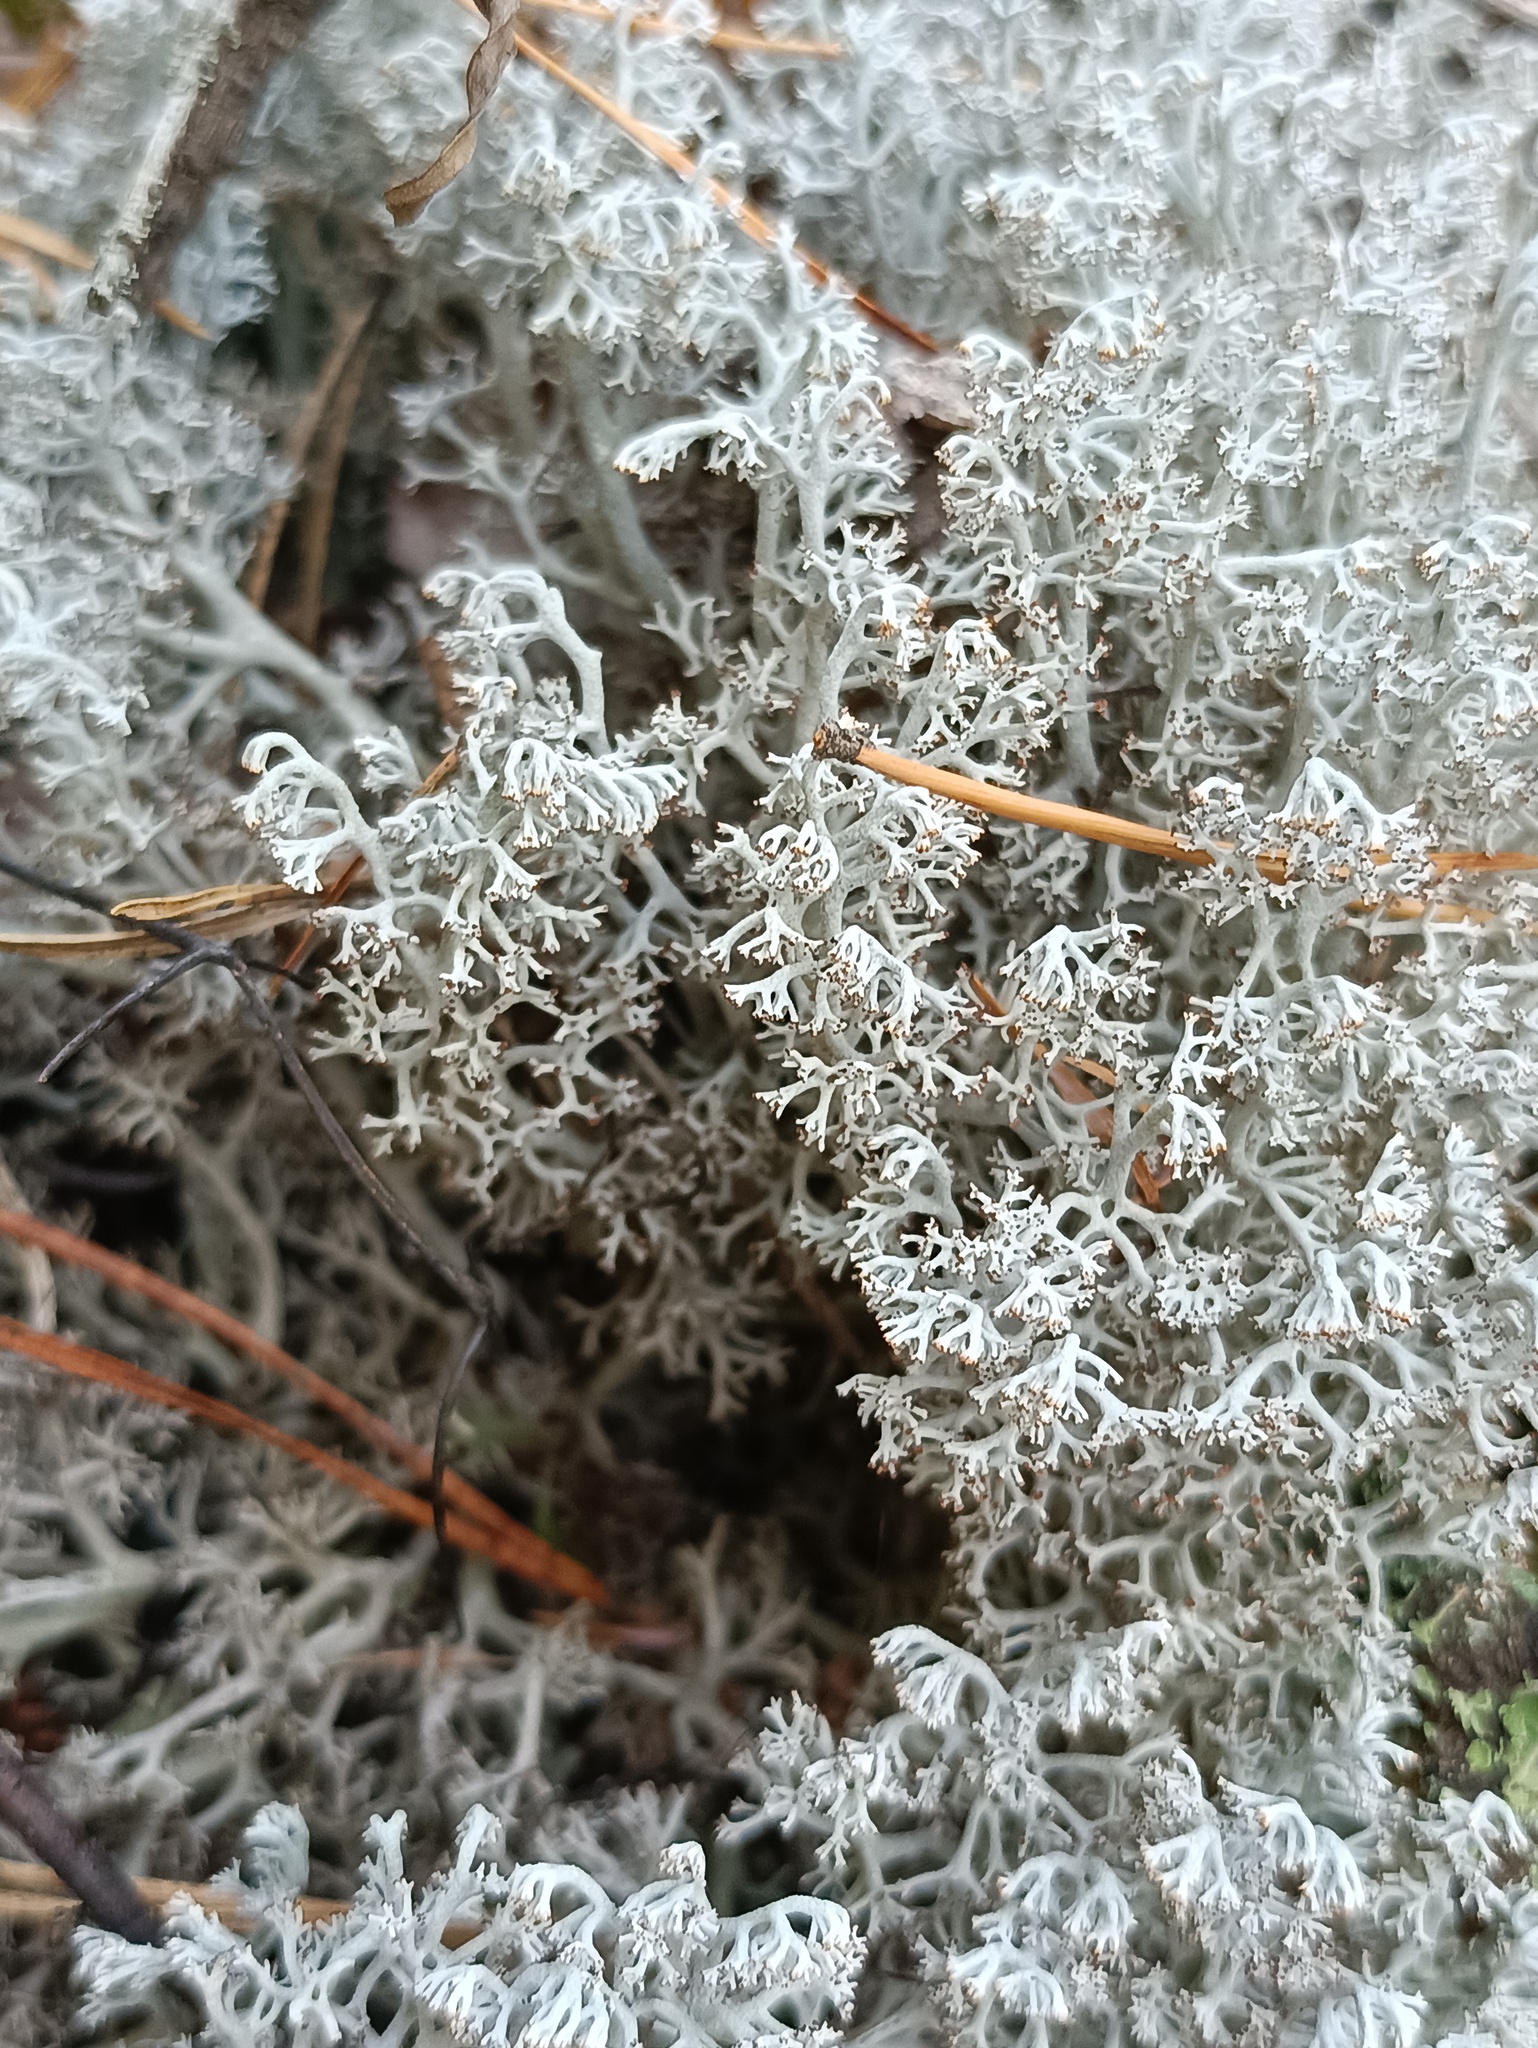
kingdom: Fungi
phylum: Ascomycota
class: Lecanoromycetes
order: Lecanorales
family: Cladoniaceae
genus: Cladonia
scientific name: Cladonia rangiferina
